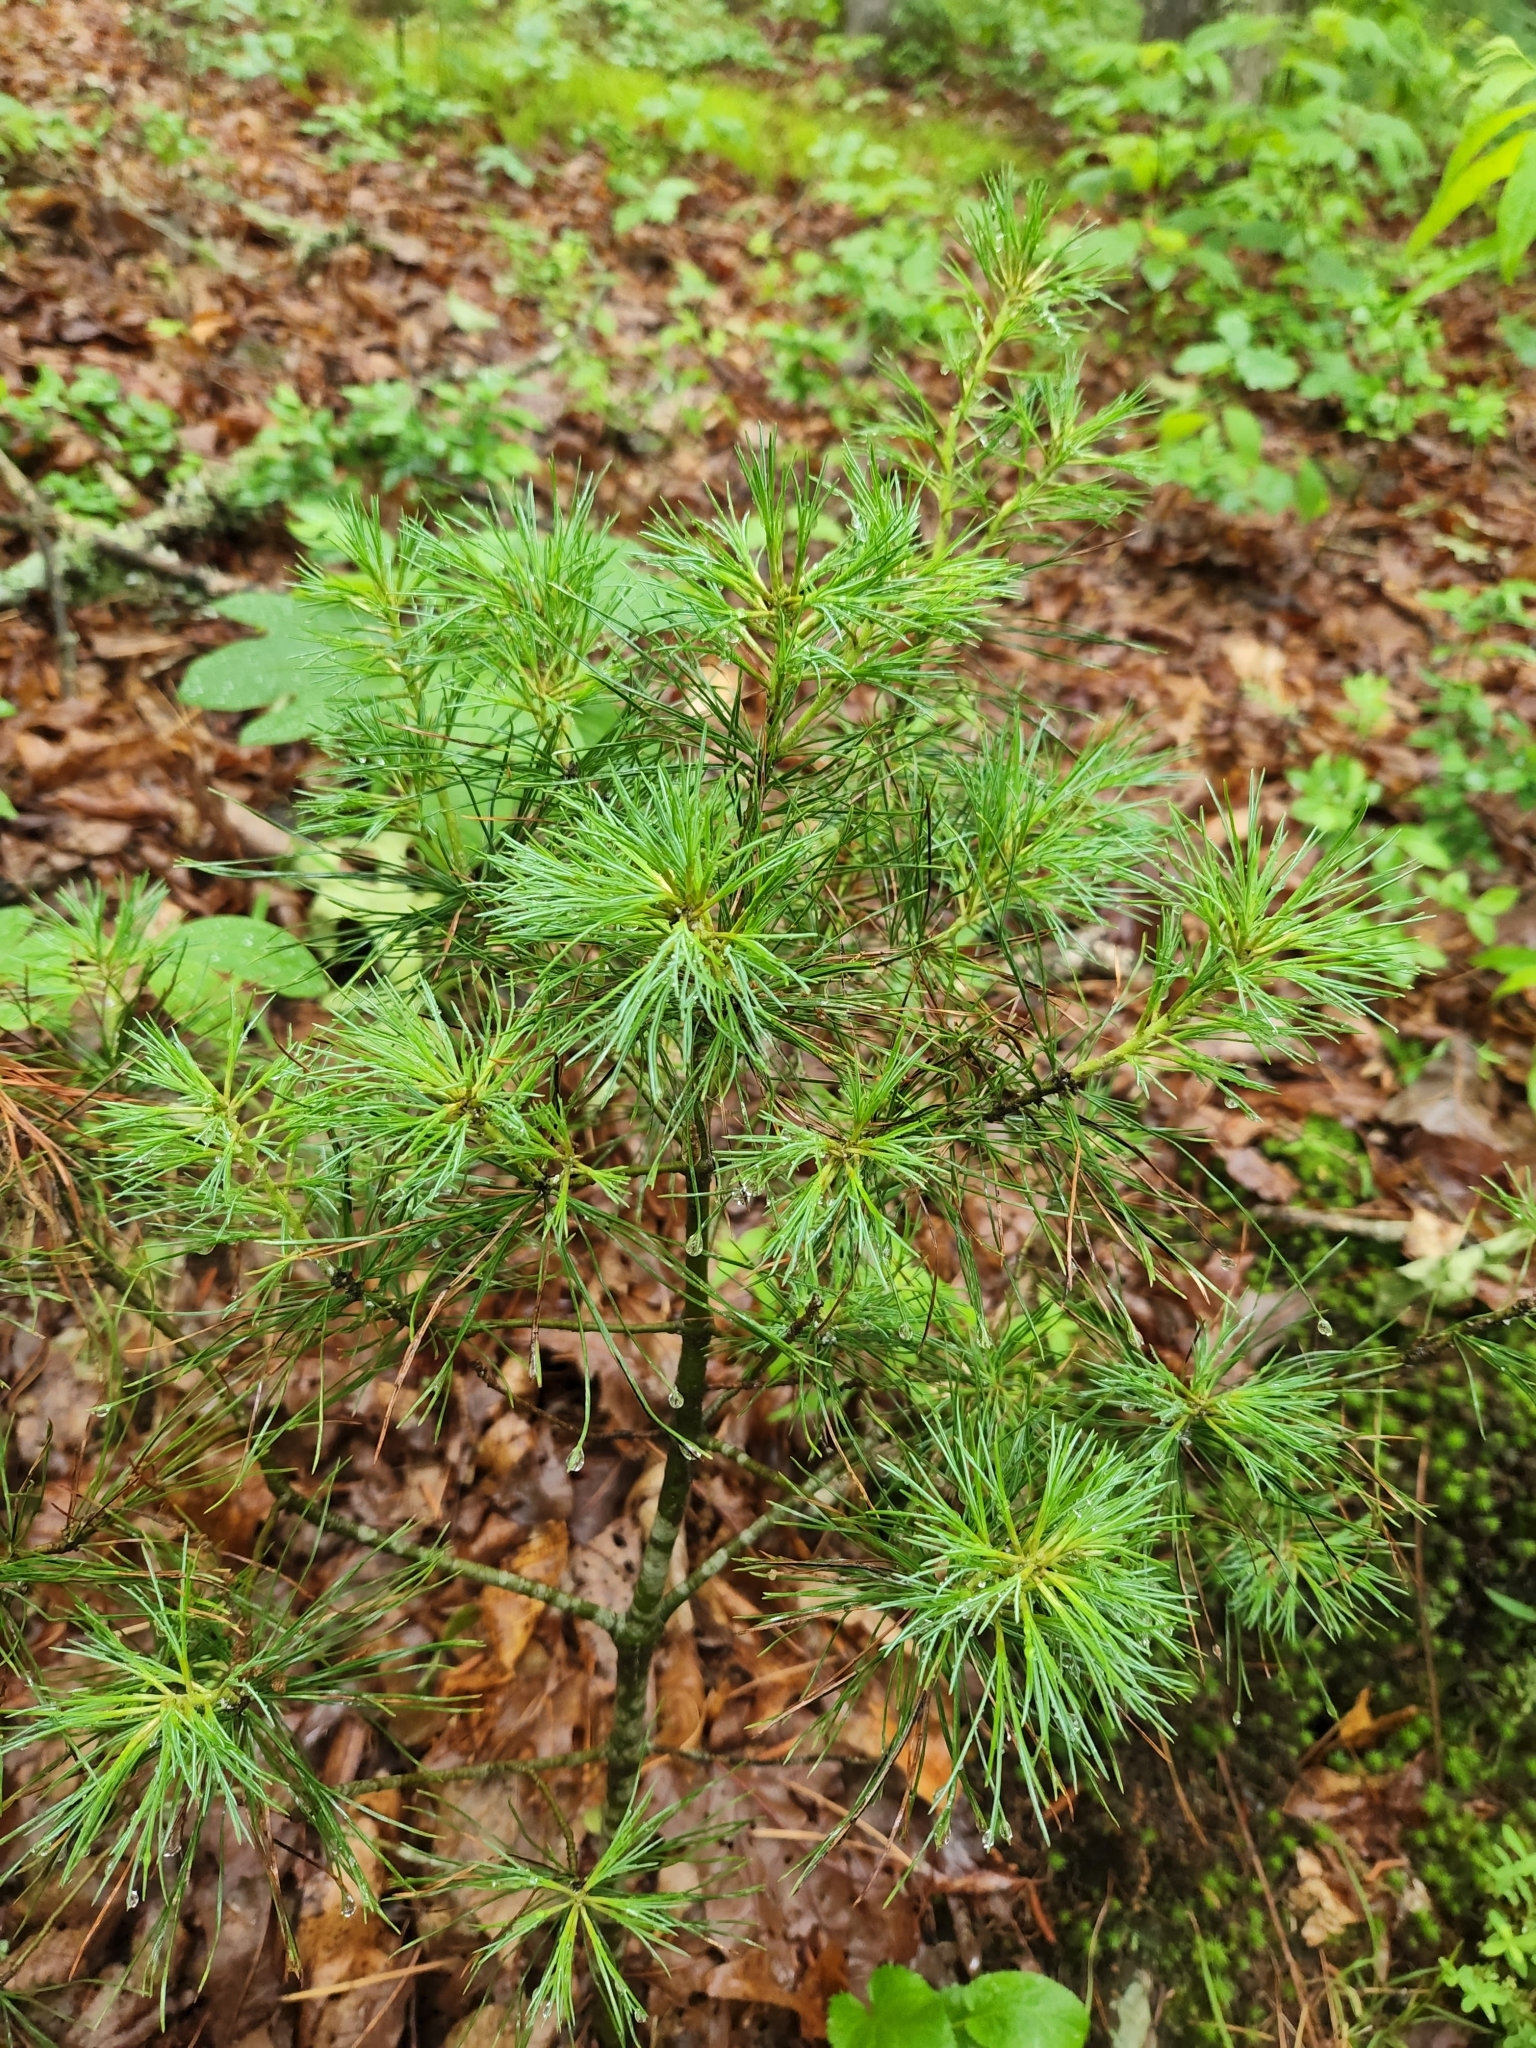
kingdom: Plantae
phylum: Tracheophyta
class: Pinopsida
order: Pinales
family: Pinaceae
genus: Pinus
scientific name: Pinus strobus
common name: Weymouth pine
